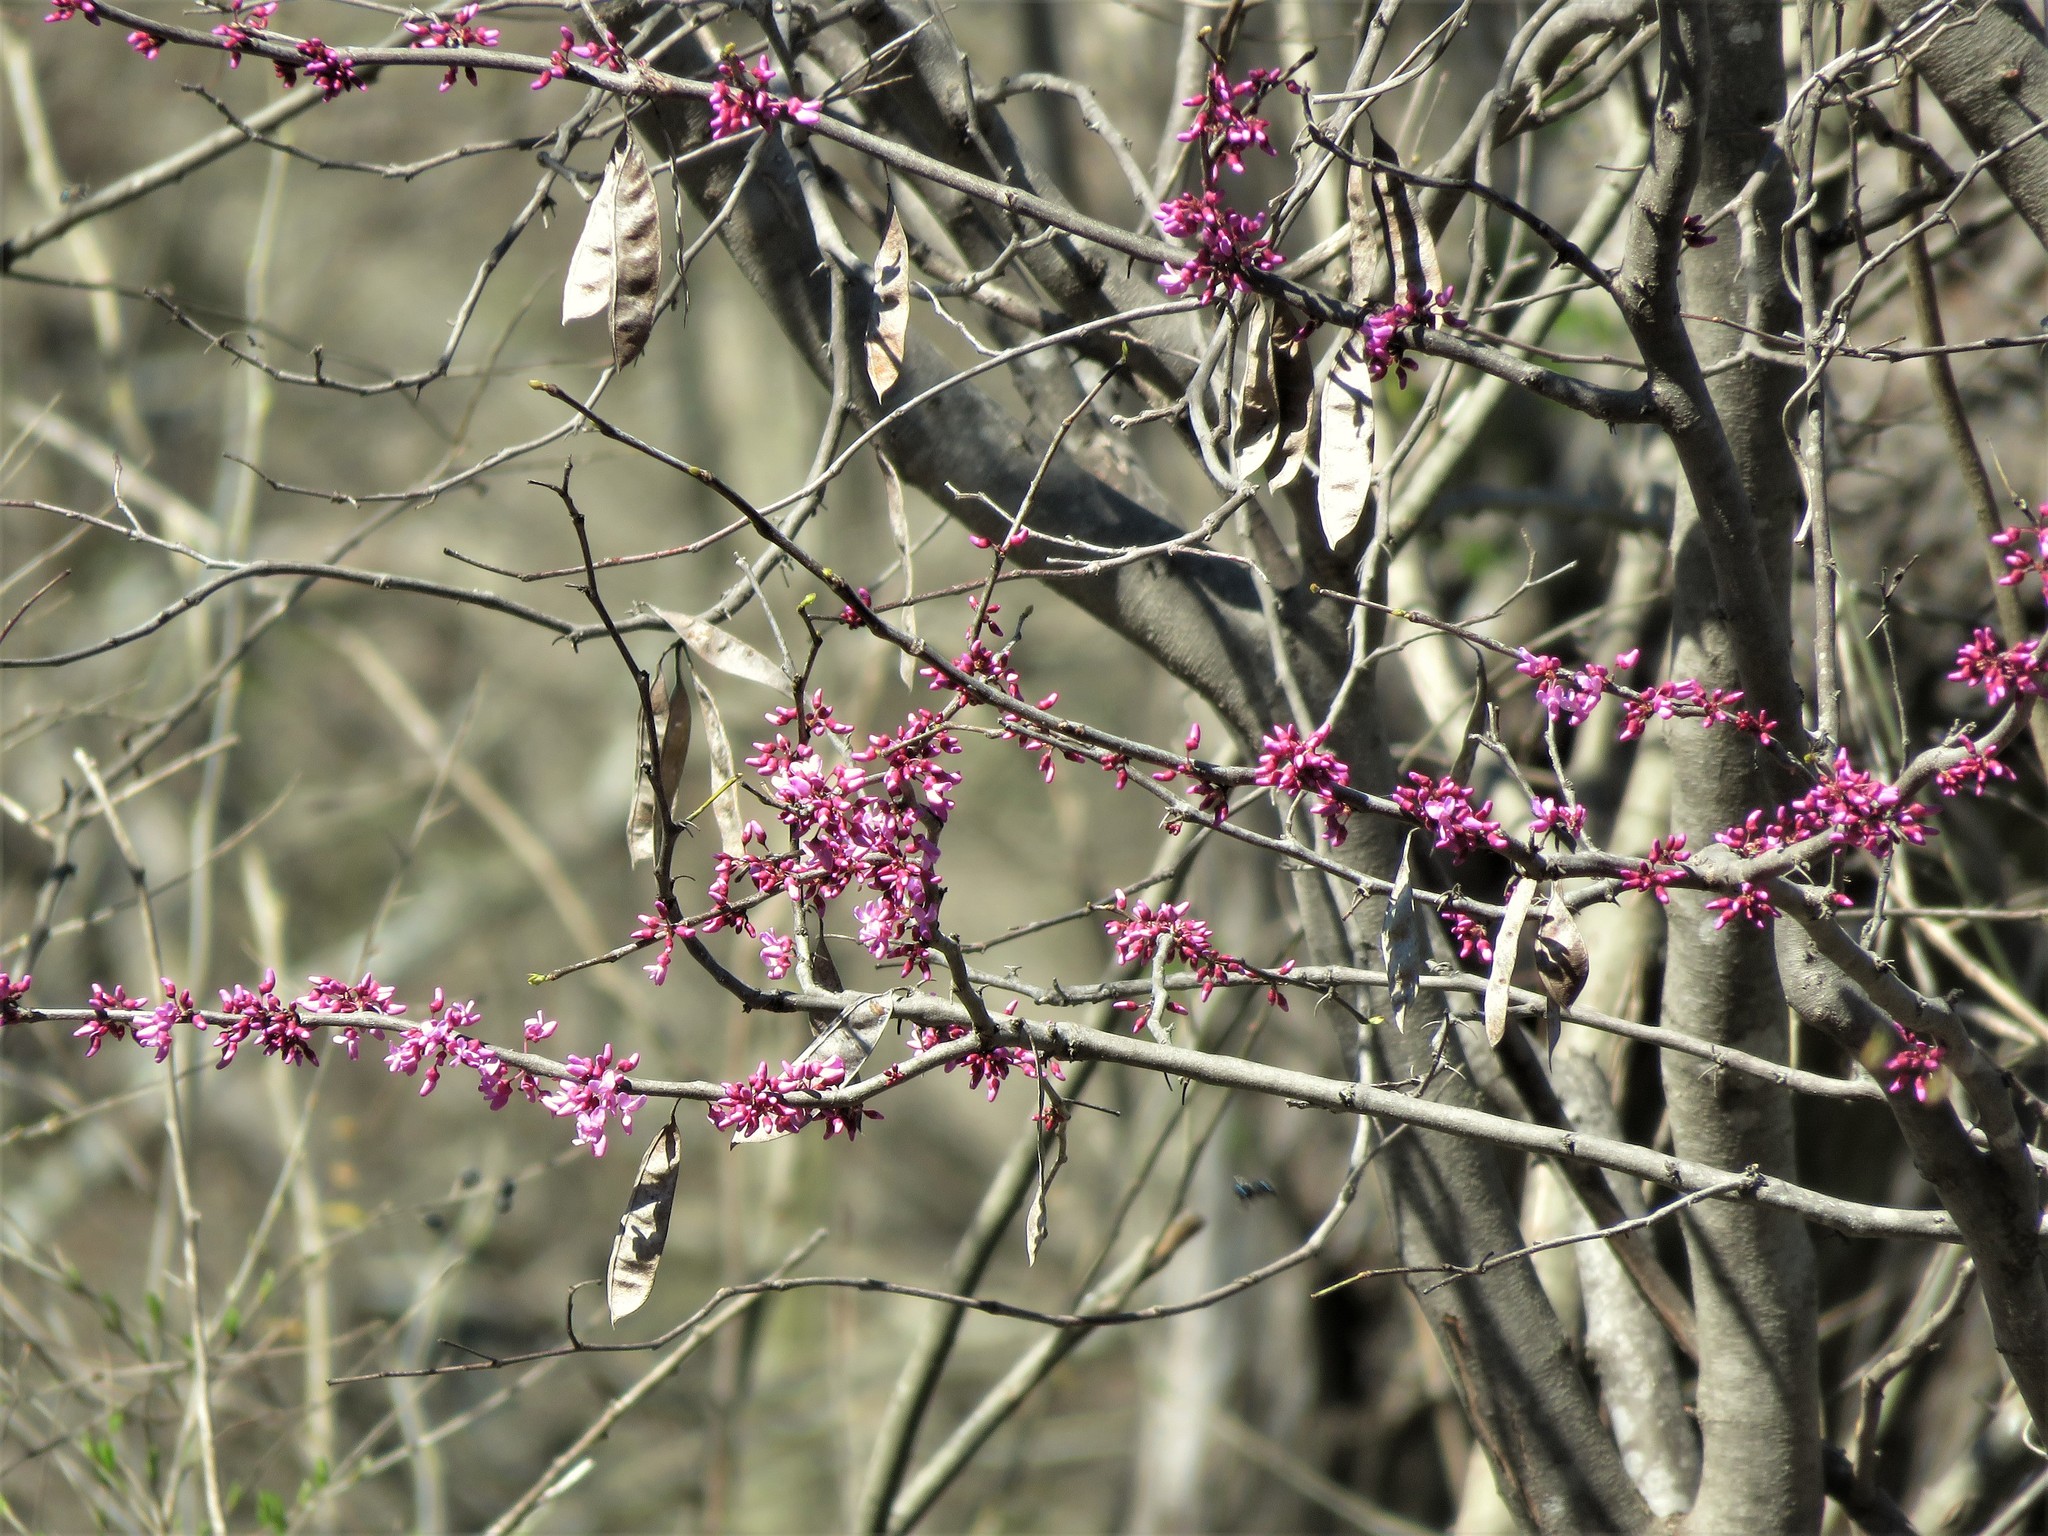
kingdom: Plantae
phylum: Tracheophyta
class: Magnoliopsida
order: Fabales
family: Fabaceae
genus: Cercis
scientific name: Cercis canadensis
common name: Eastern redbud
